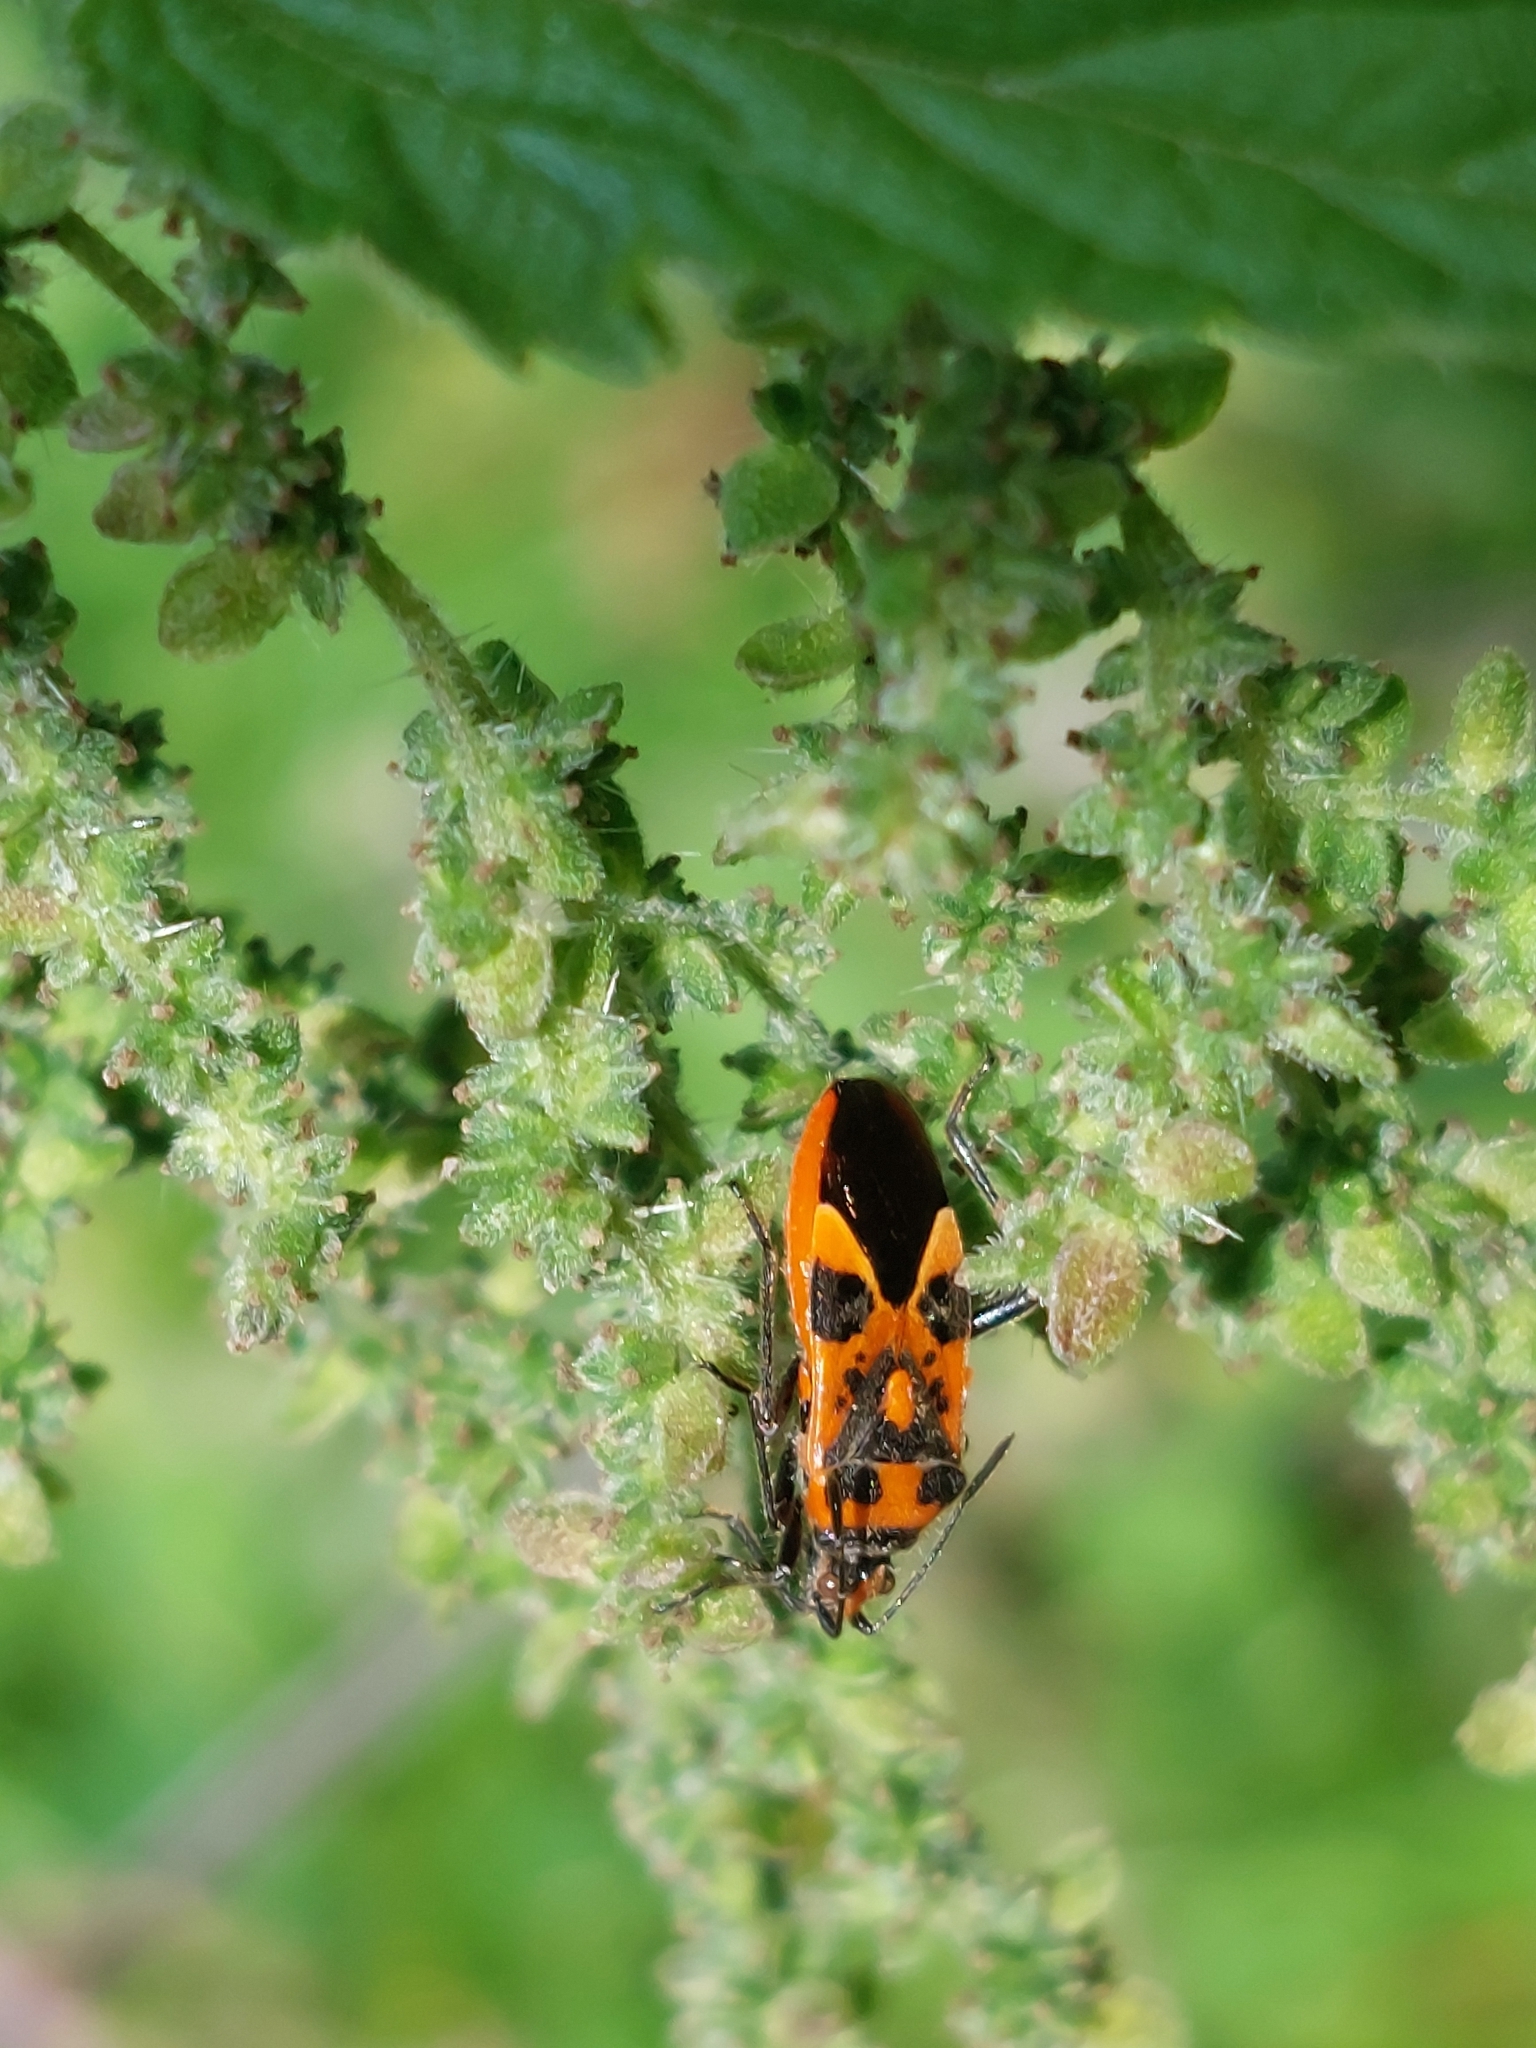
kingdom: Animalia
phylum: Arthropoda
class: Insecta
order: Hemiptera
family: Rhopalidae
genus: Corizus
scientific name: Corizus hyoscyami
